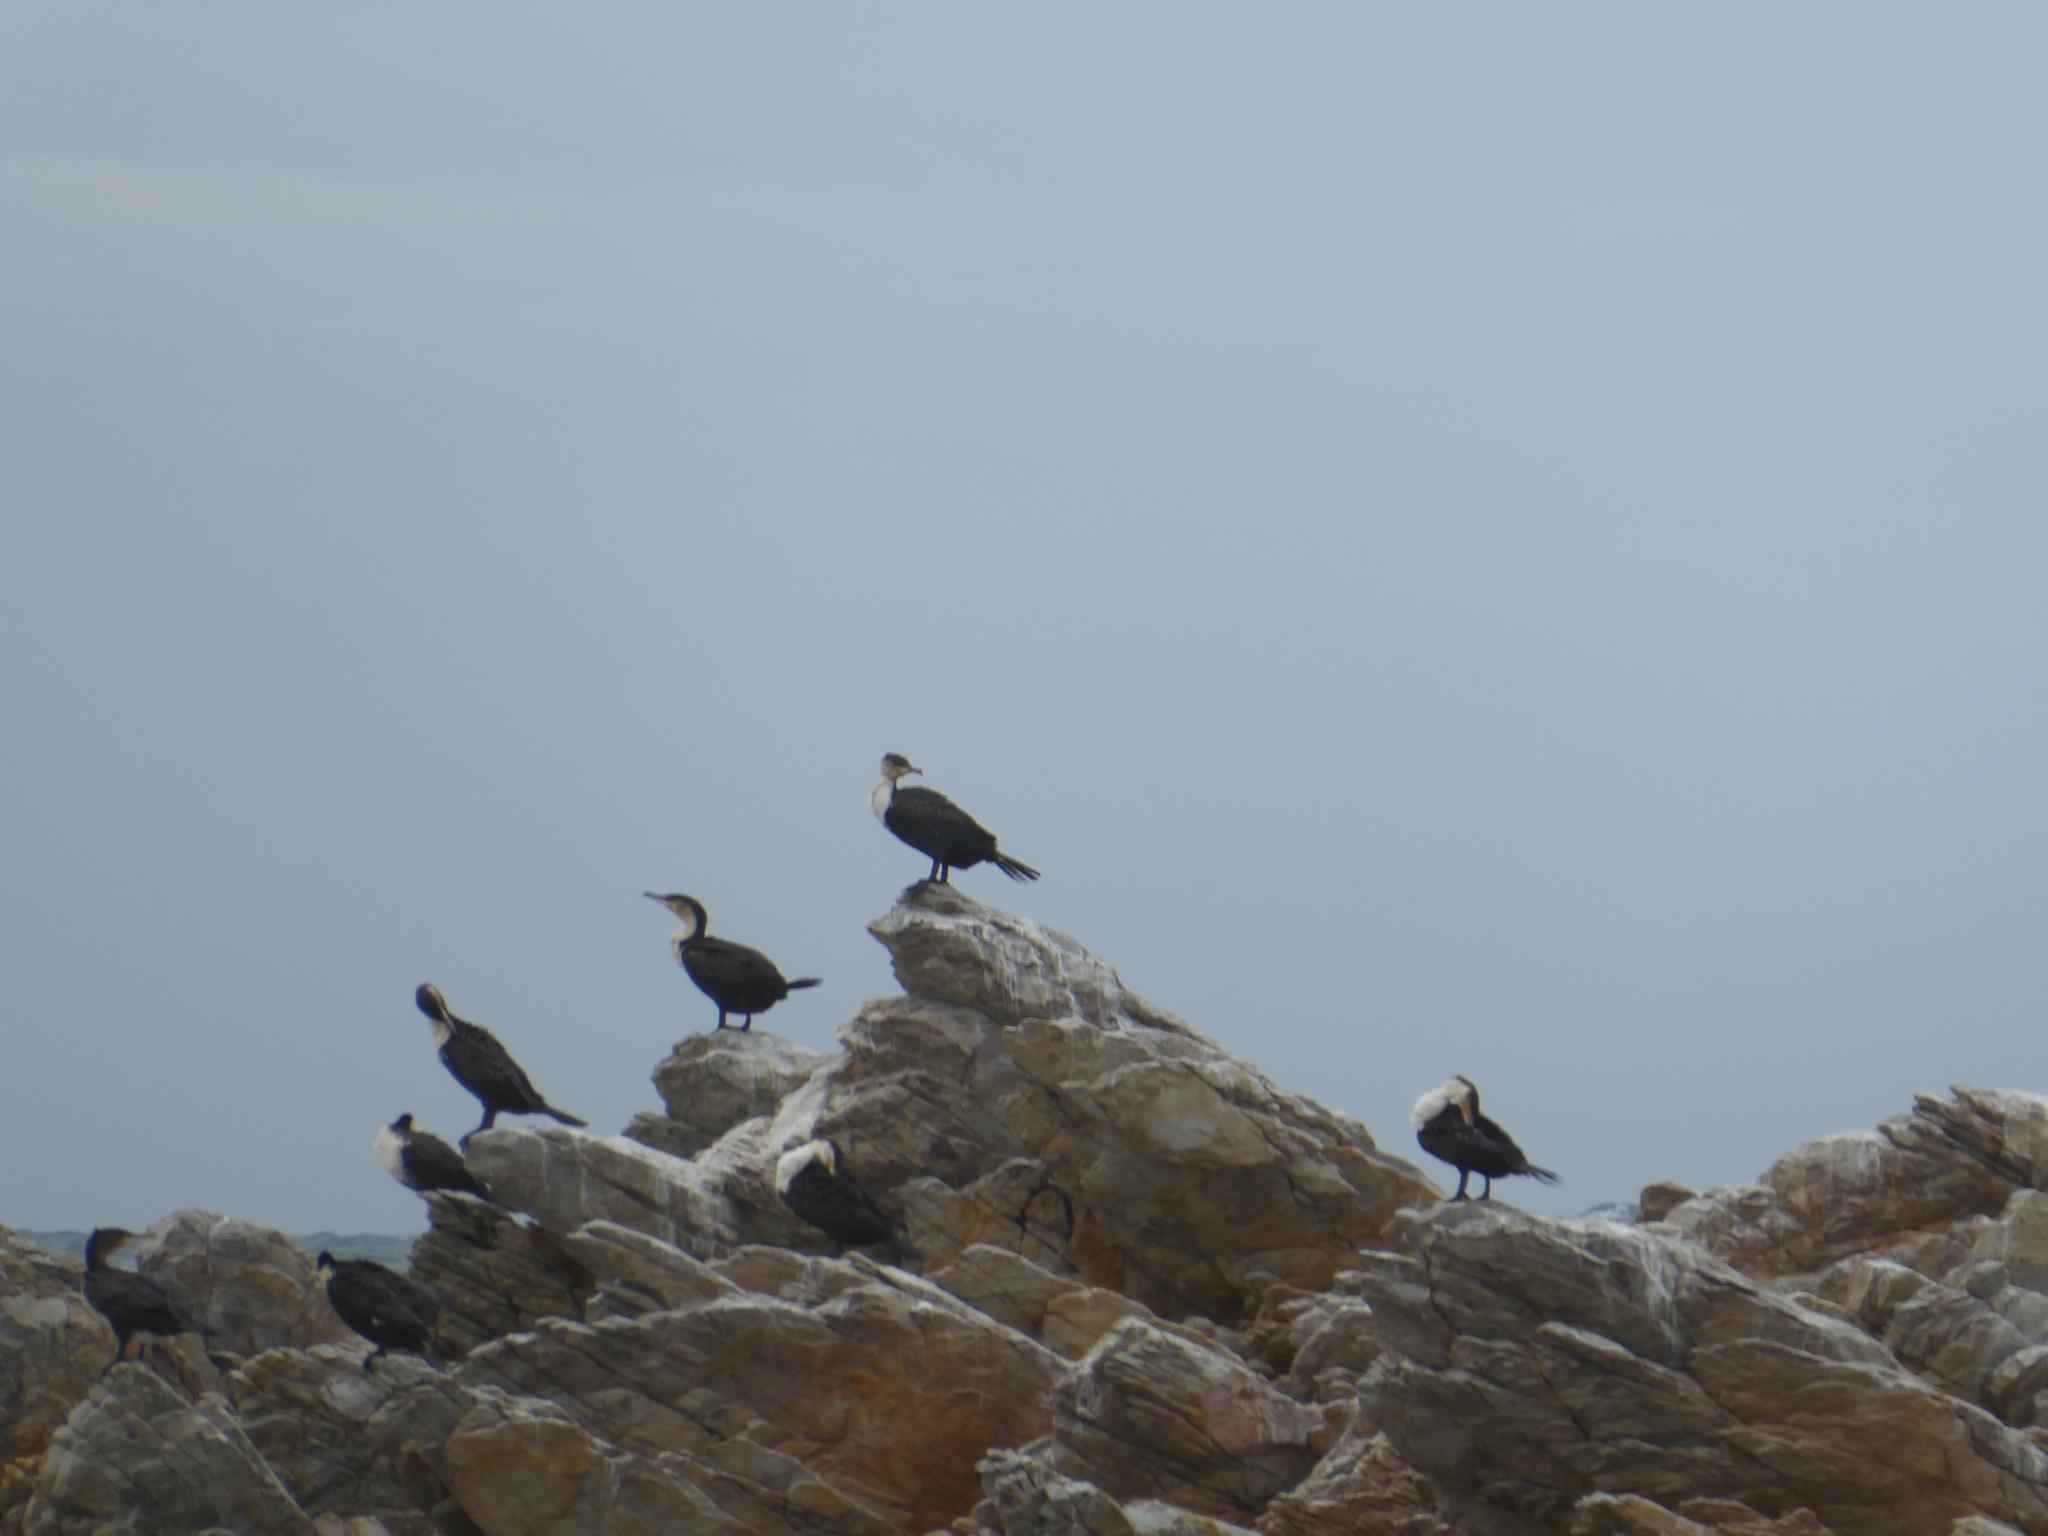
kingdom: Animalia
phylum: Chordata
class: Aves
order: Suliformes
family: Phalacrocoracidae
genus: Phalacrocorax
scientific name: Phalacrocorax carbo
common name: Great cormorant
